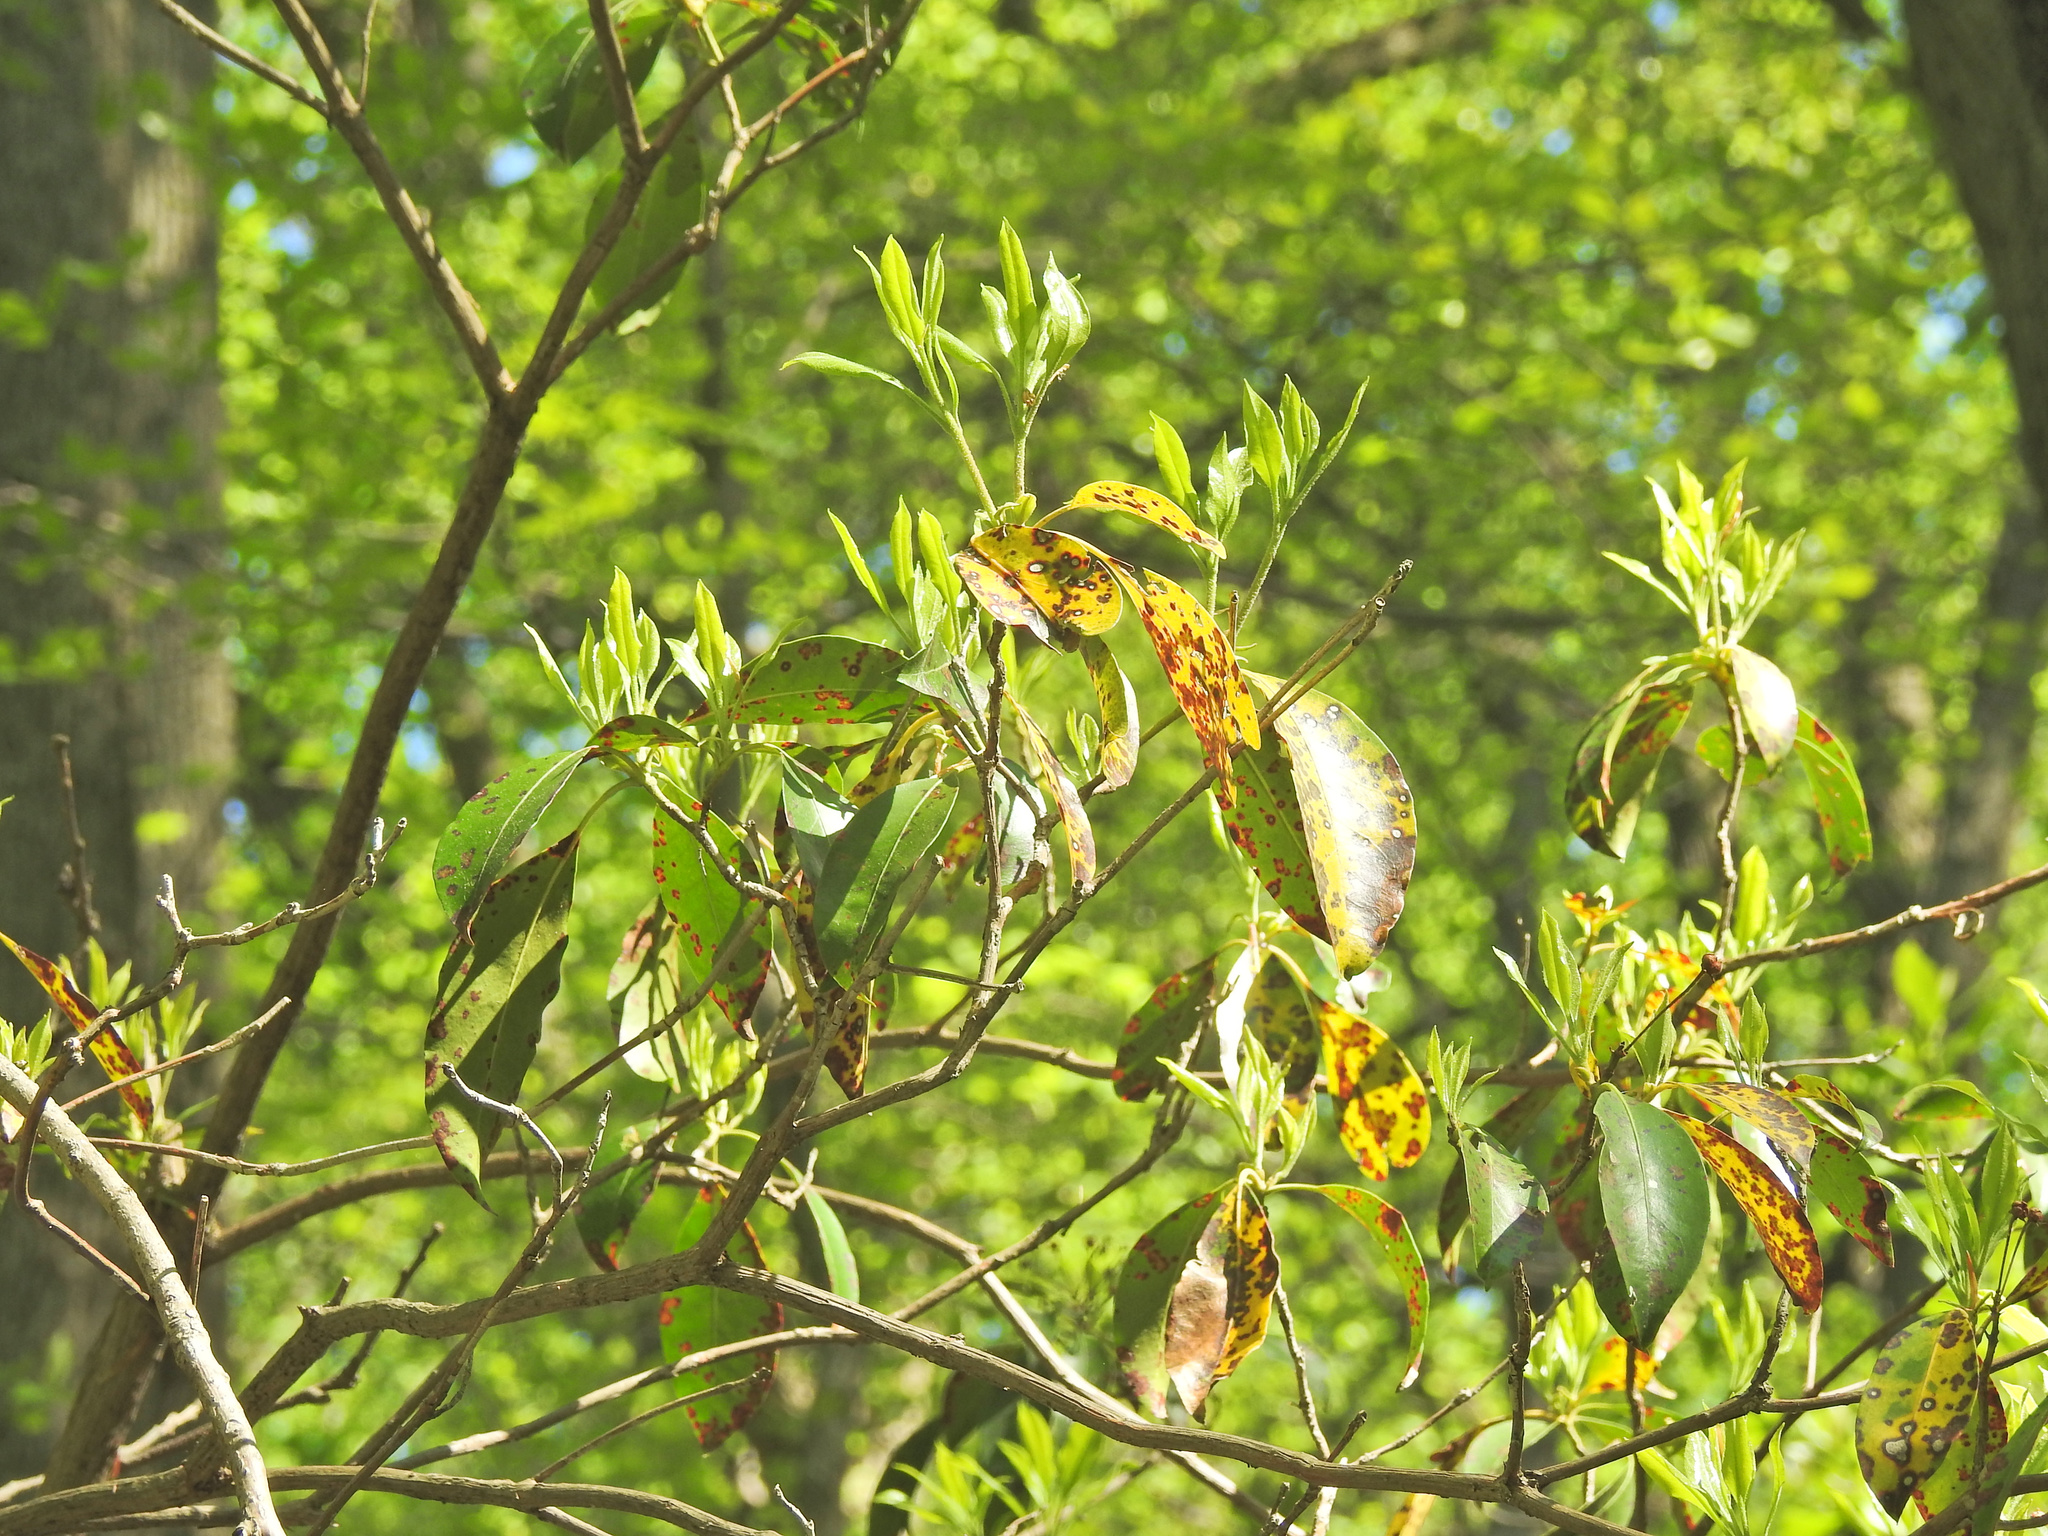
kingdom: Plantae
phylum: Tracheophyta
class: Magnoliopsida
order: Ericales
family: Ericaceae
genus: Kalmia
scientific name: Kalmia latifolia
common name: Mountain-laurel
